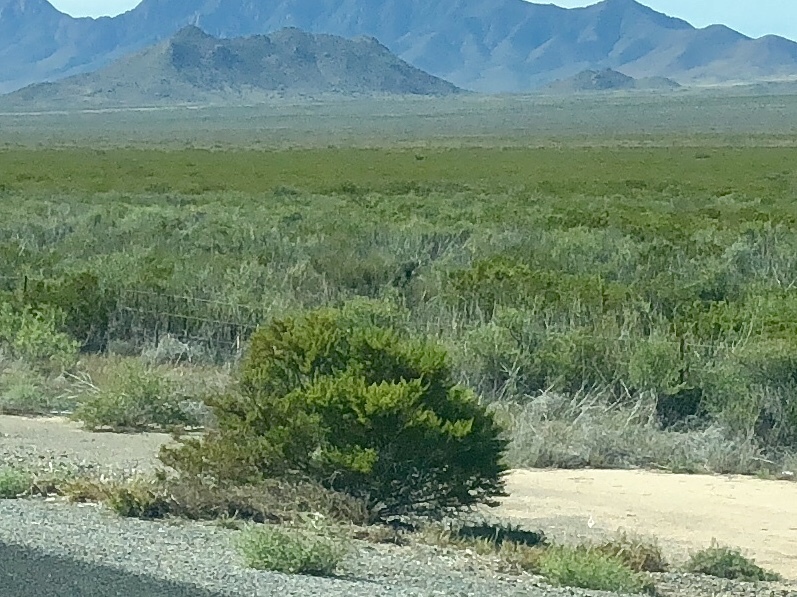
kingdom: Plantae
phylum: Tracheophyta
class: Magnoliopsida
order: Zygophyllales
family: Zygophyllaceae
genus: Larrea
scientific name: Larrea tridentata
